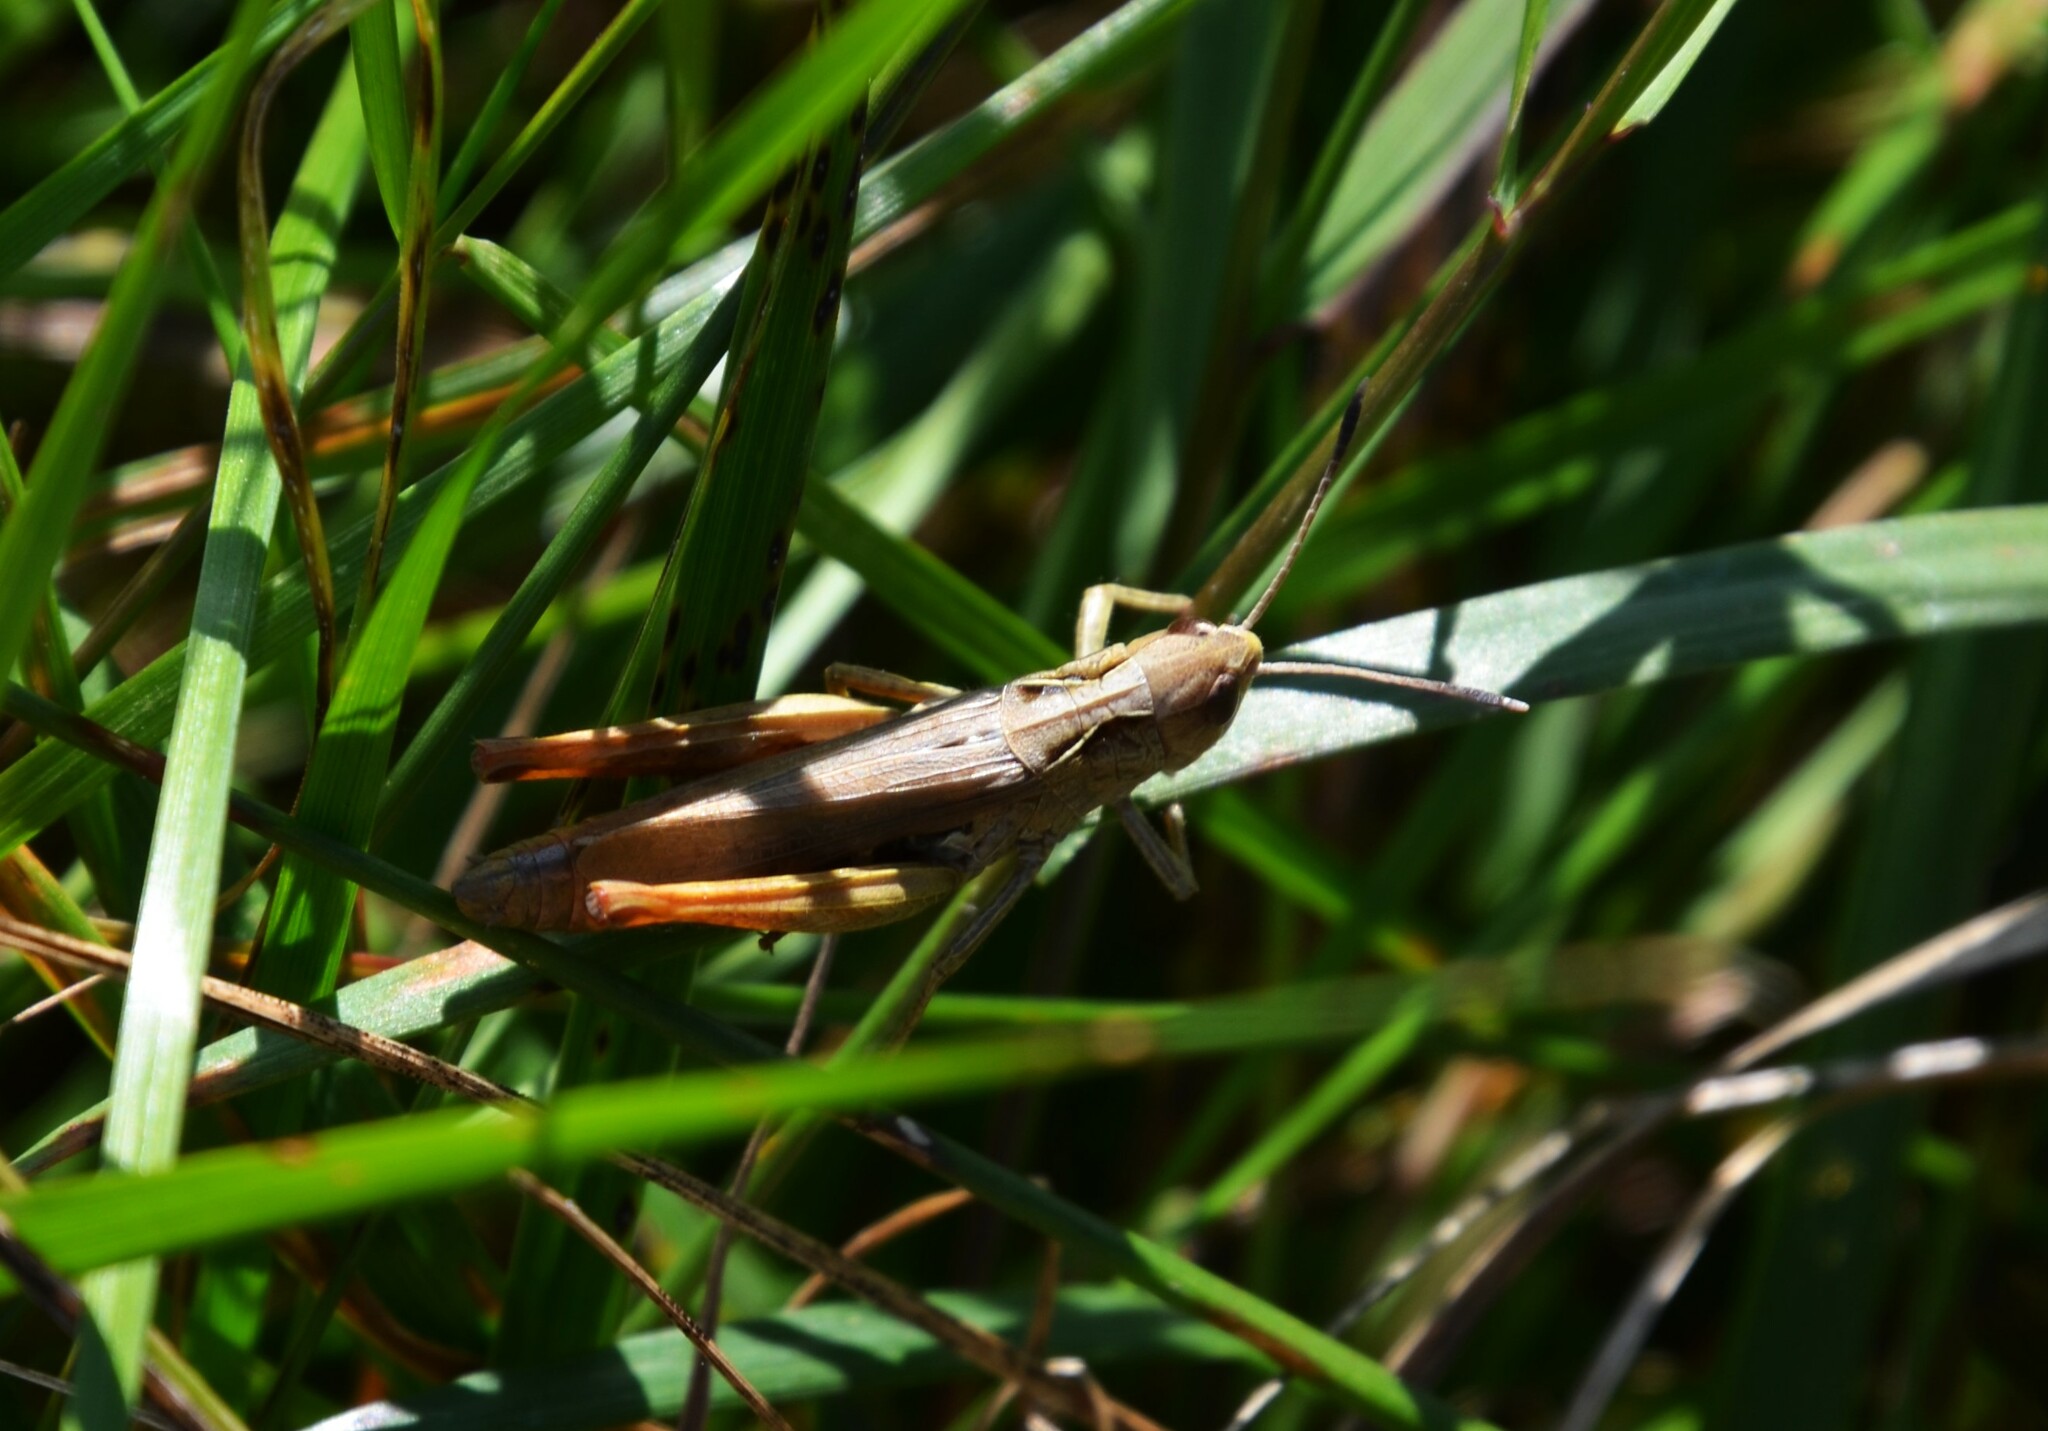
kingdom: Animalia
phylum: Arthropoda
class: Insecta
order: Orthoptera
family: Acrididae
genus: Gomphocerippus
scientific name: Gomphocerippus rufus
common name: Rufous grasshopper
